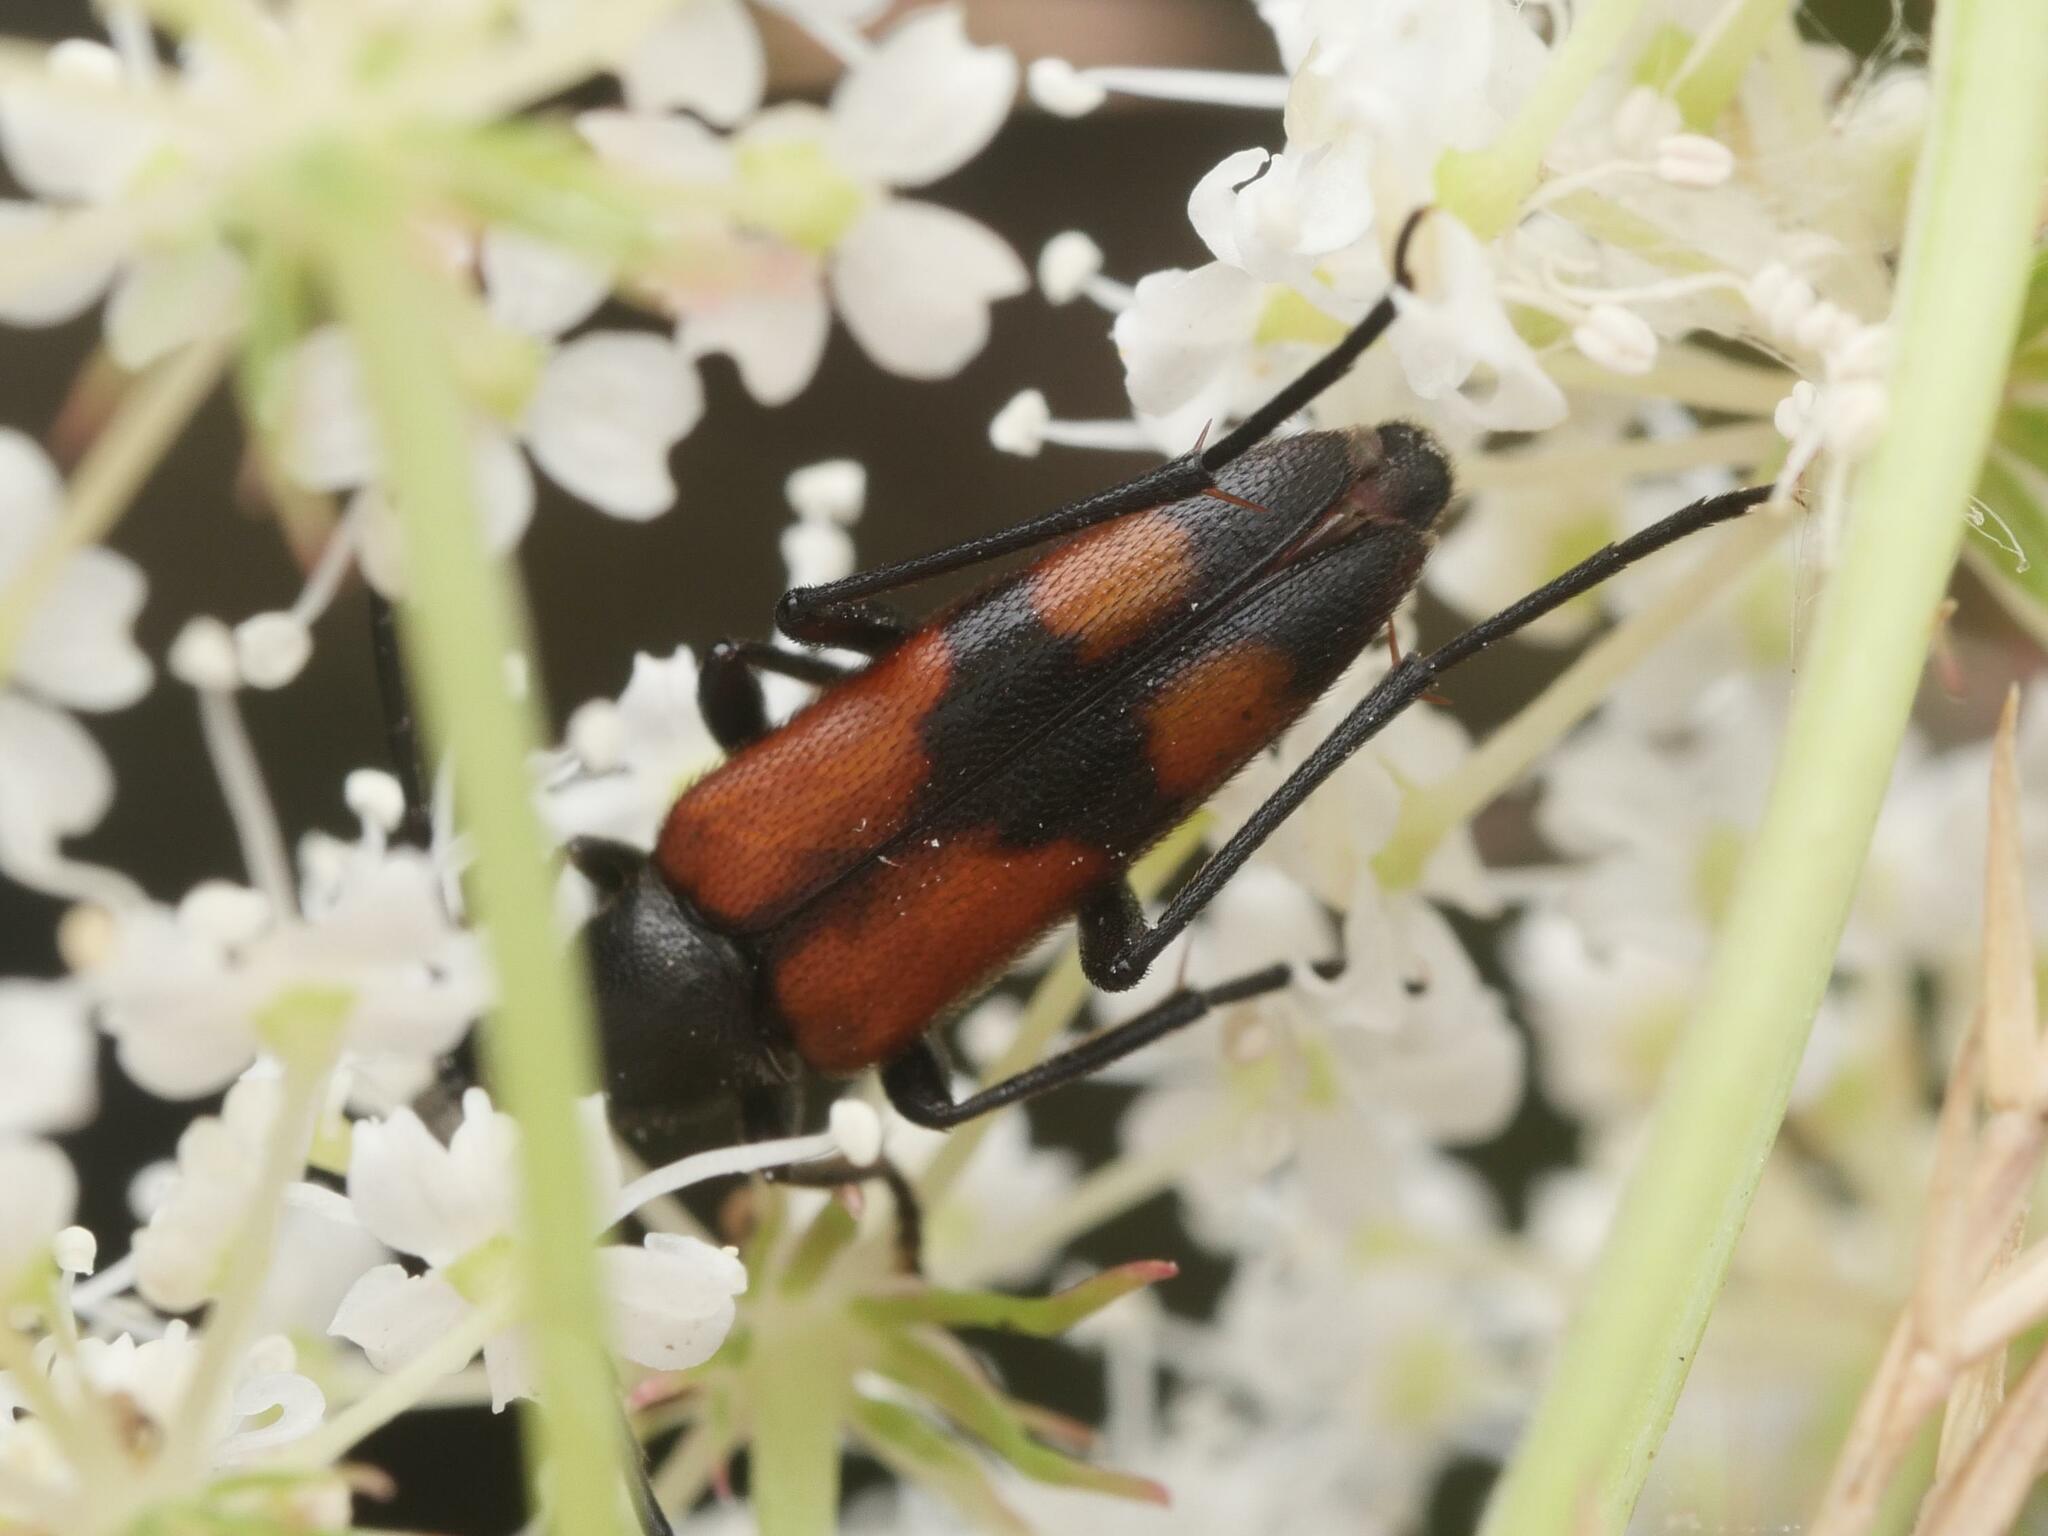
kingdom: Animalia
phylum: Arthropoda
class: Insecta
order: Coleoptera
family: Cerambycidae
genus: Stenurella
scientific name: Stenurella bifasciata
